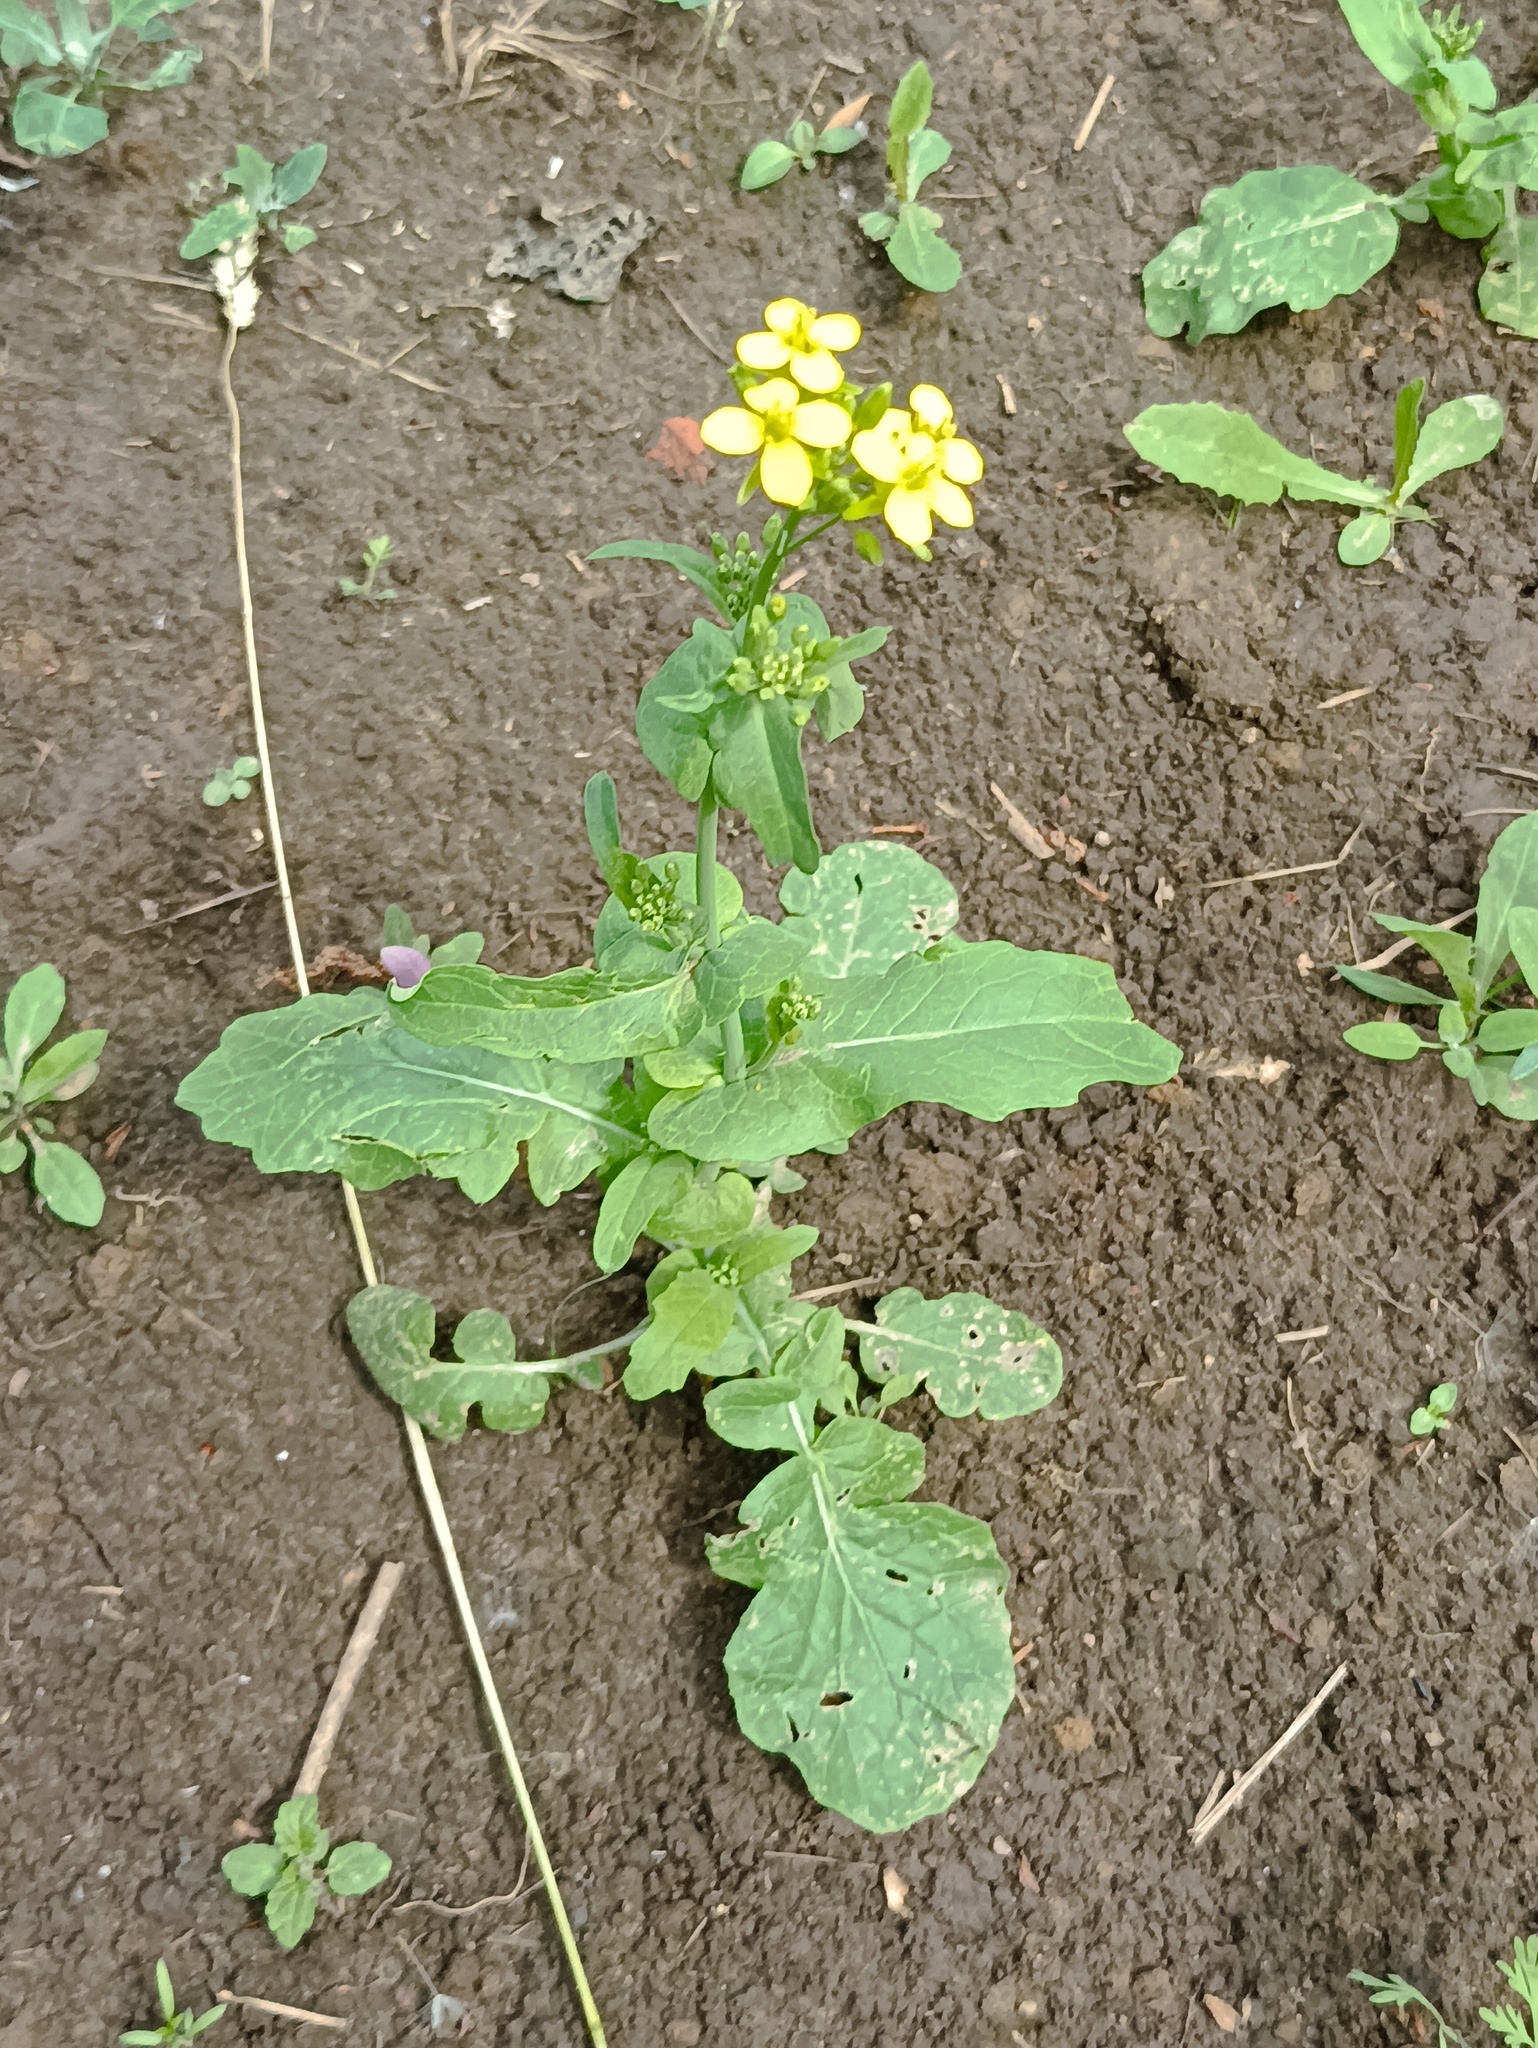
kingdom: Plantae
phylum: Tracheophyta
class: Magnoliopsida
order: Brassicales
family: Brassicaceae
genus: Brassica
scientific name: Brassica rapa
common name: Field mustard
